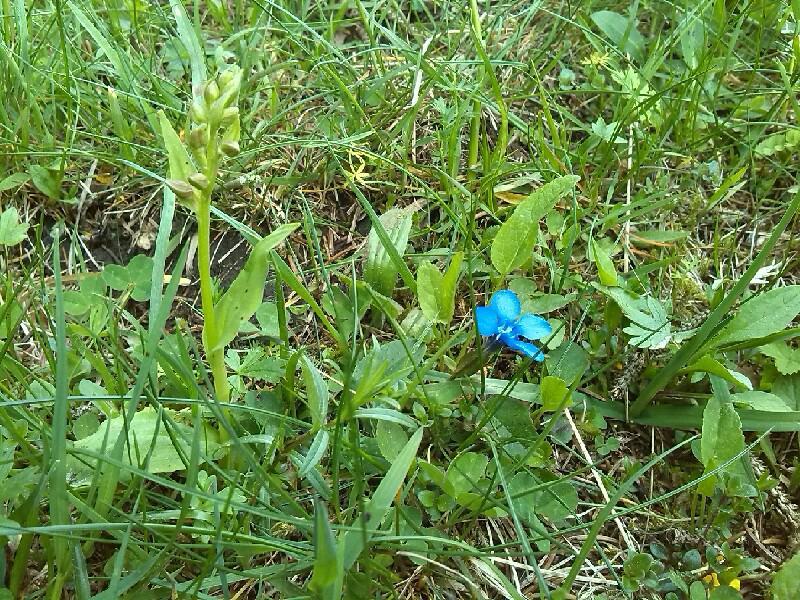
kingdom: Plantae
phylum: Tracheophyta
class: Liliopsida
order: Asparagales
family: Orchidaceae
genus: Dactylorhiza
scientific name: Dactylorhiza viridis
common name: Longbract frog orchid
